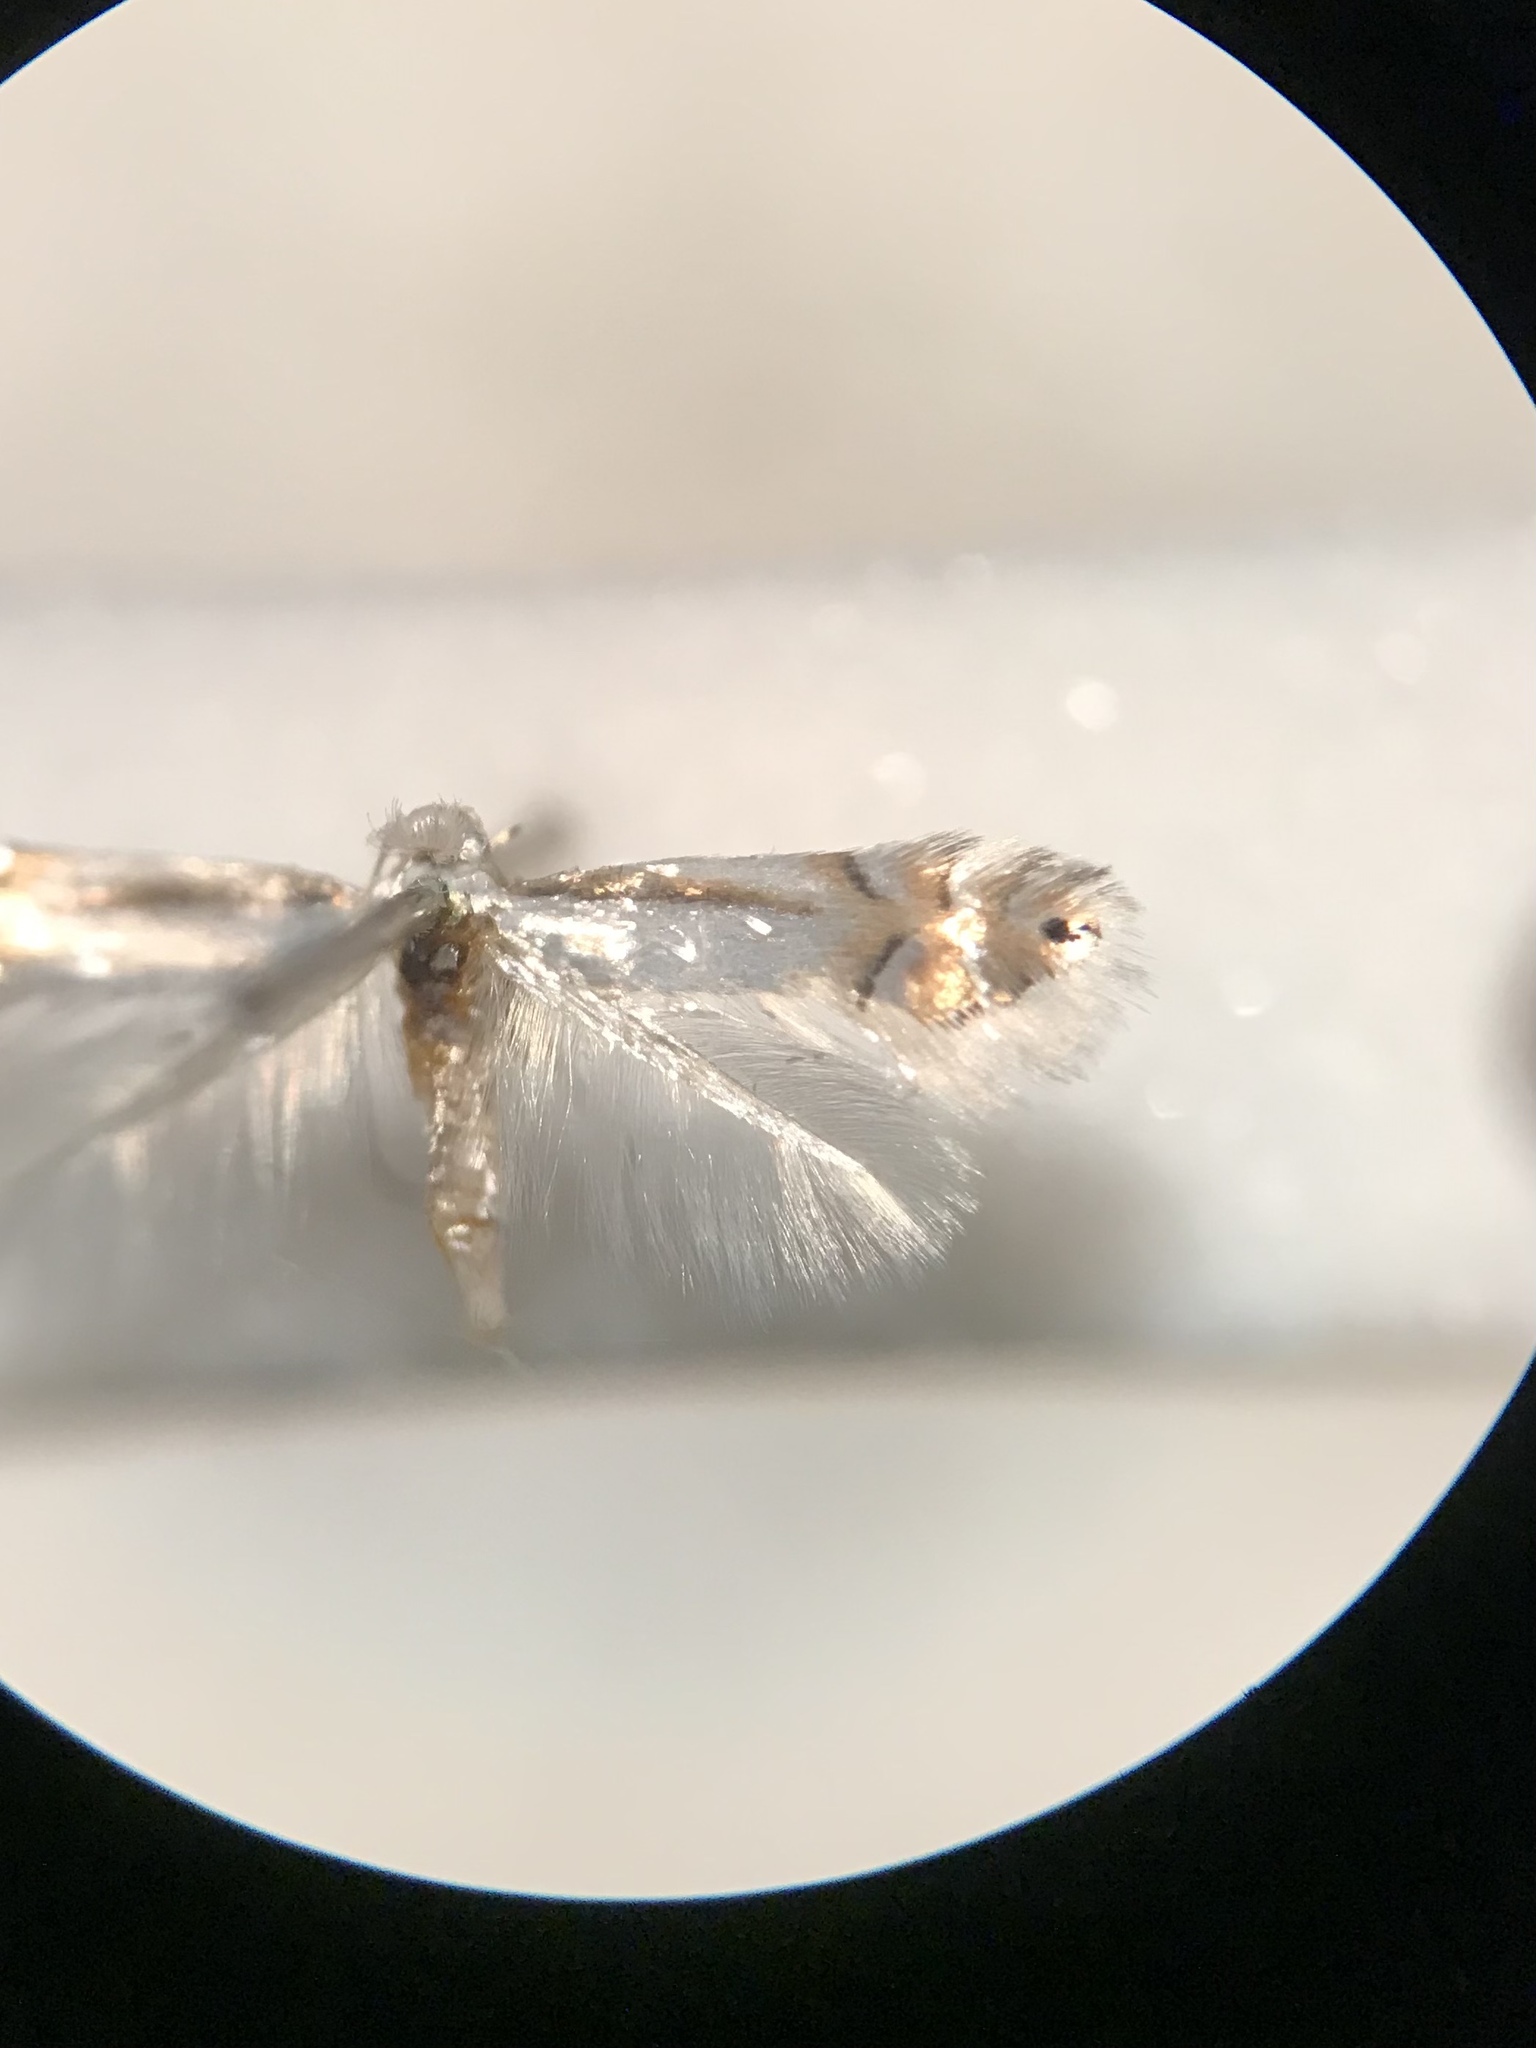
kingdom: Animalia
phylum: Arthropoda
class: Insecta
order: Lepidoptera
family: Gracillariidae
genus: Phyllonorycter
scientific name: Phyllonorycter quercialbella
